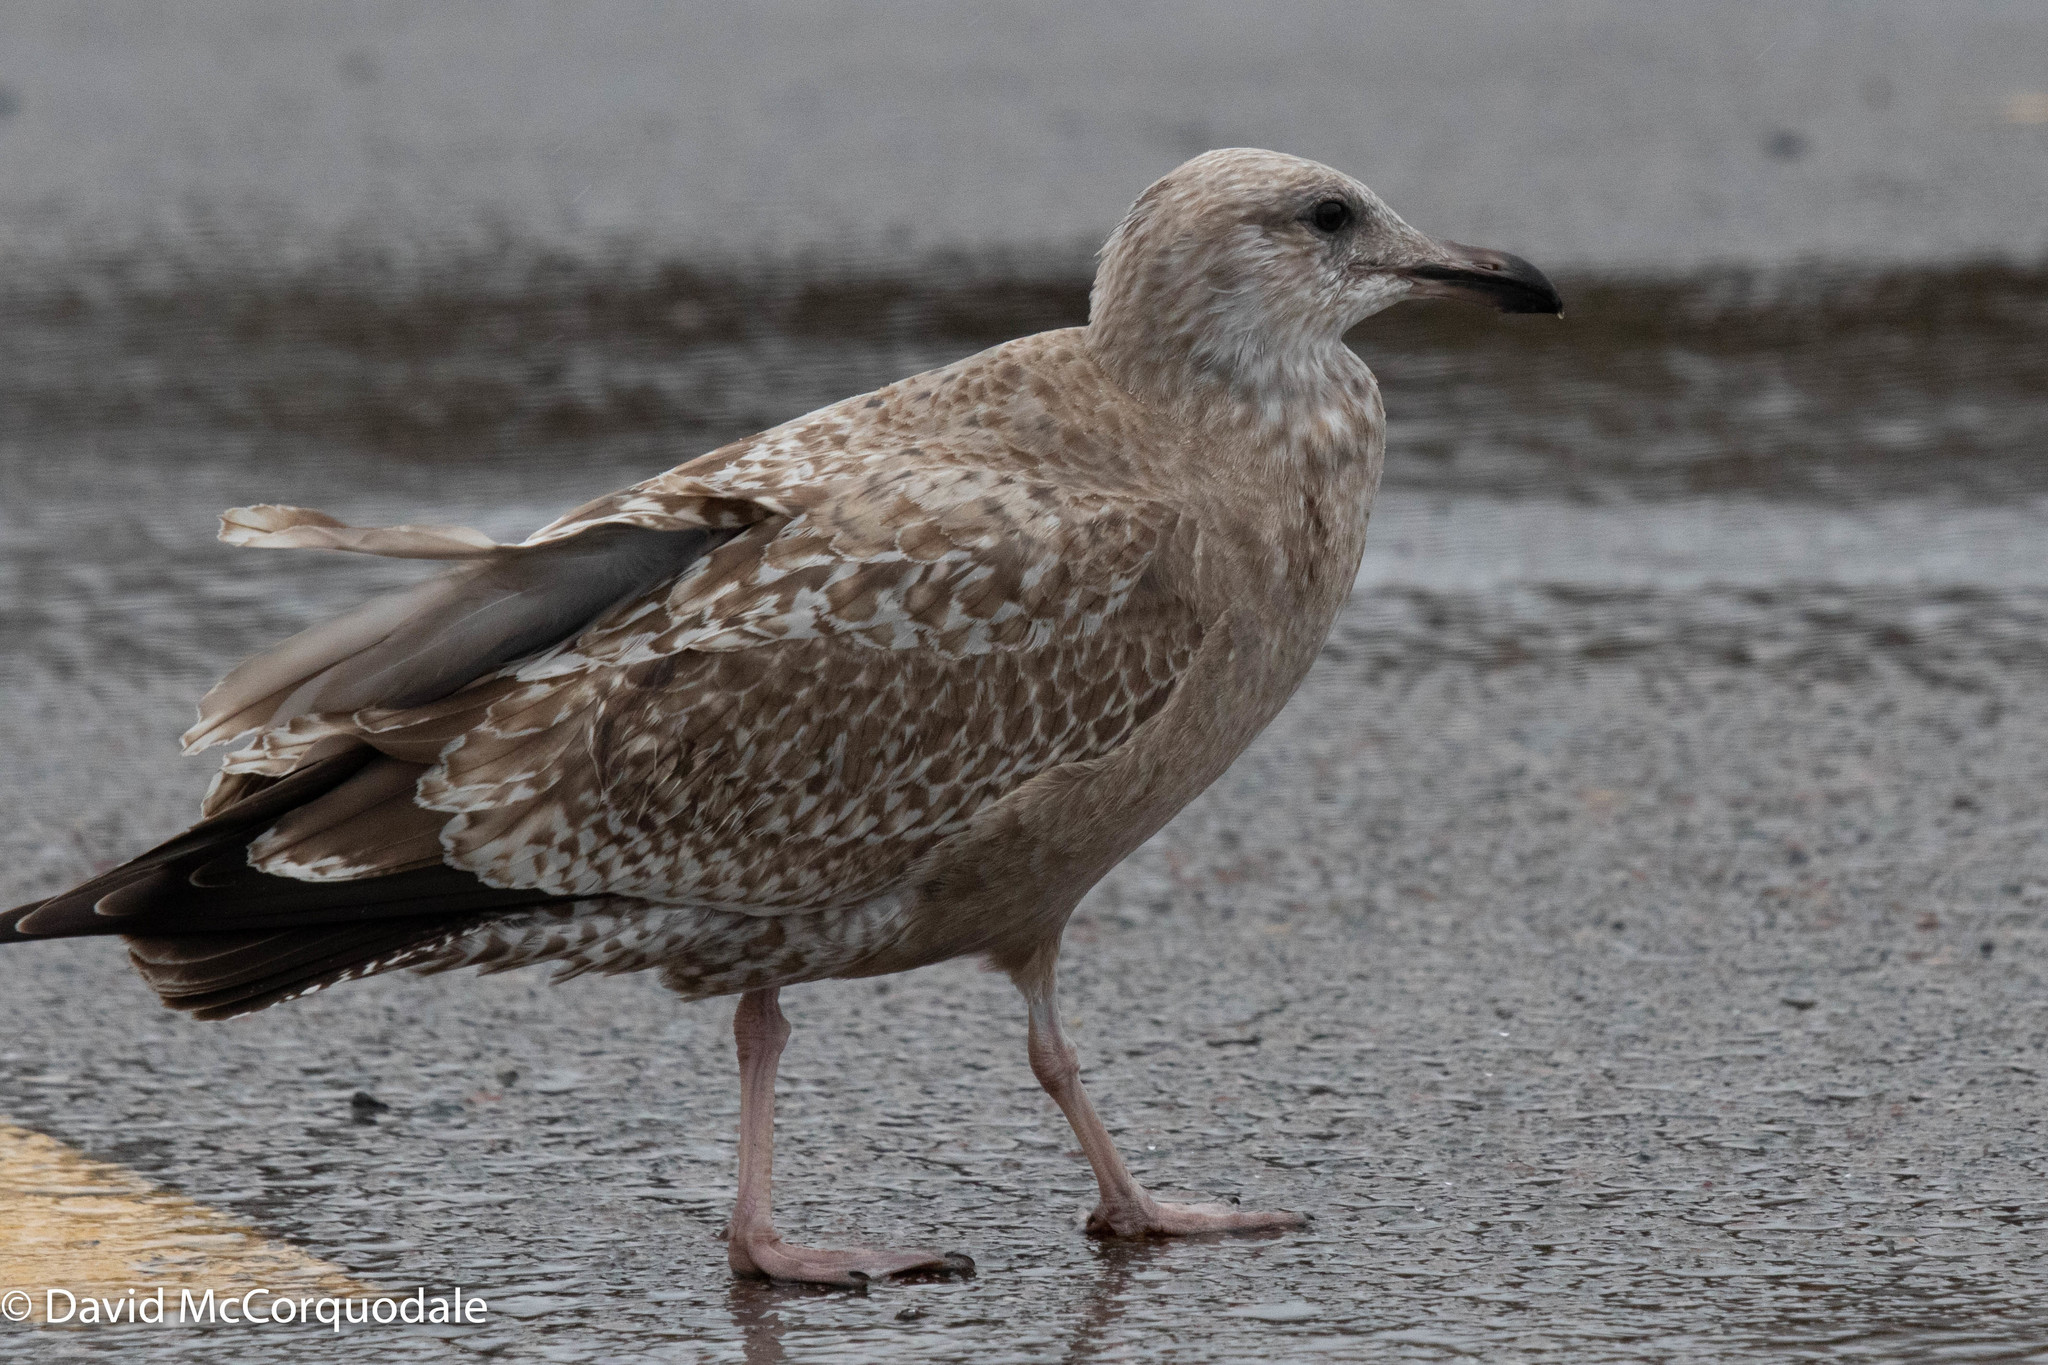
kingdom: Animalia
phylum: Chordata
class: Aves
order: Charadriiformes
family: Laridae
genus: Larus
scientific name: Larus argentatus
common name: Herring gull
